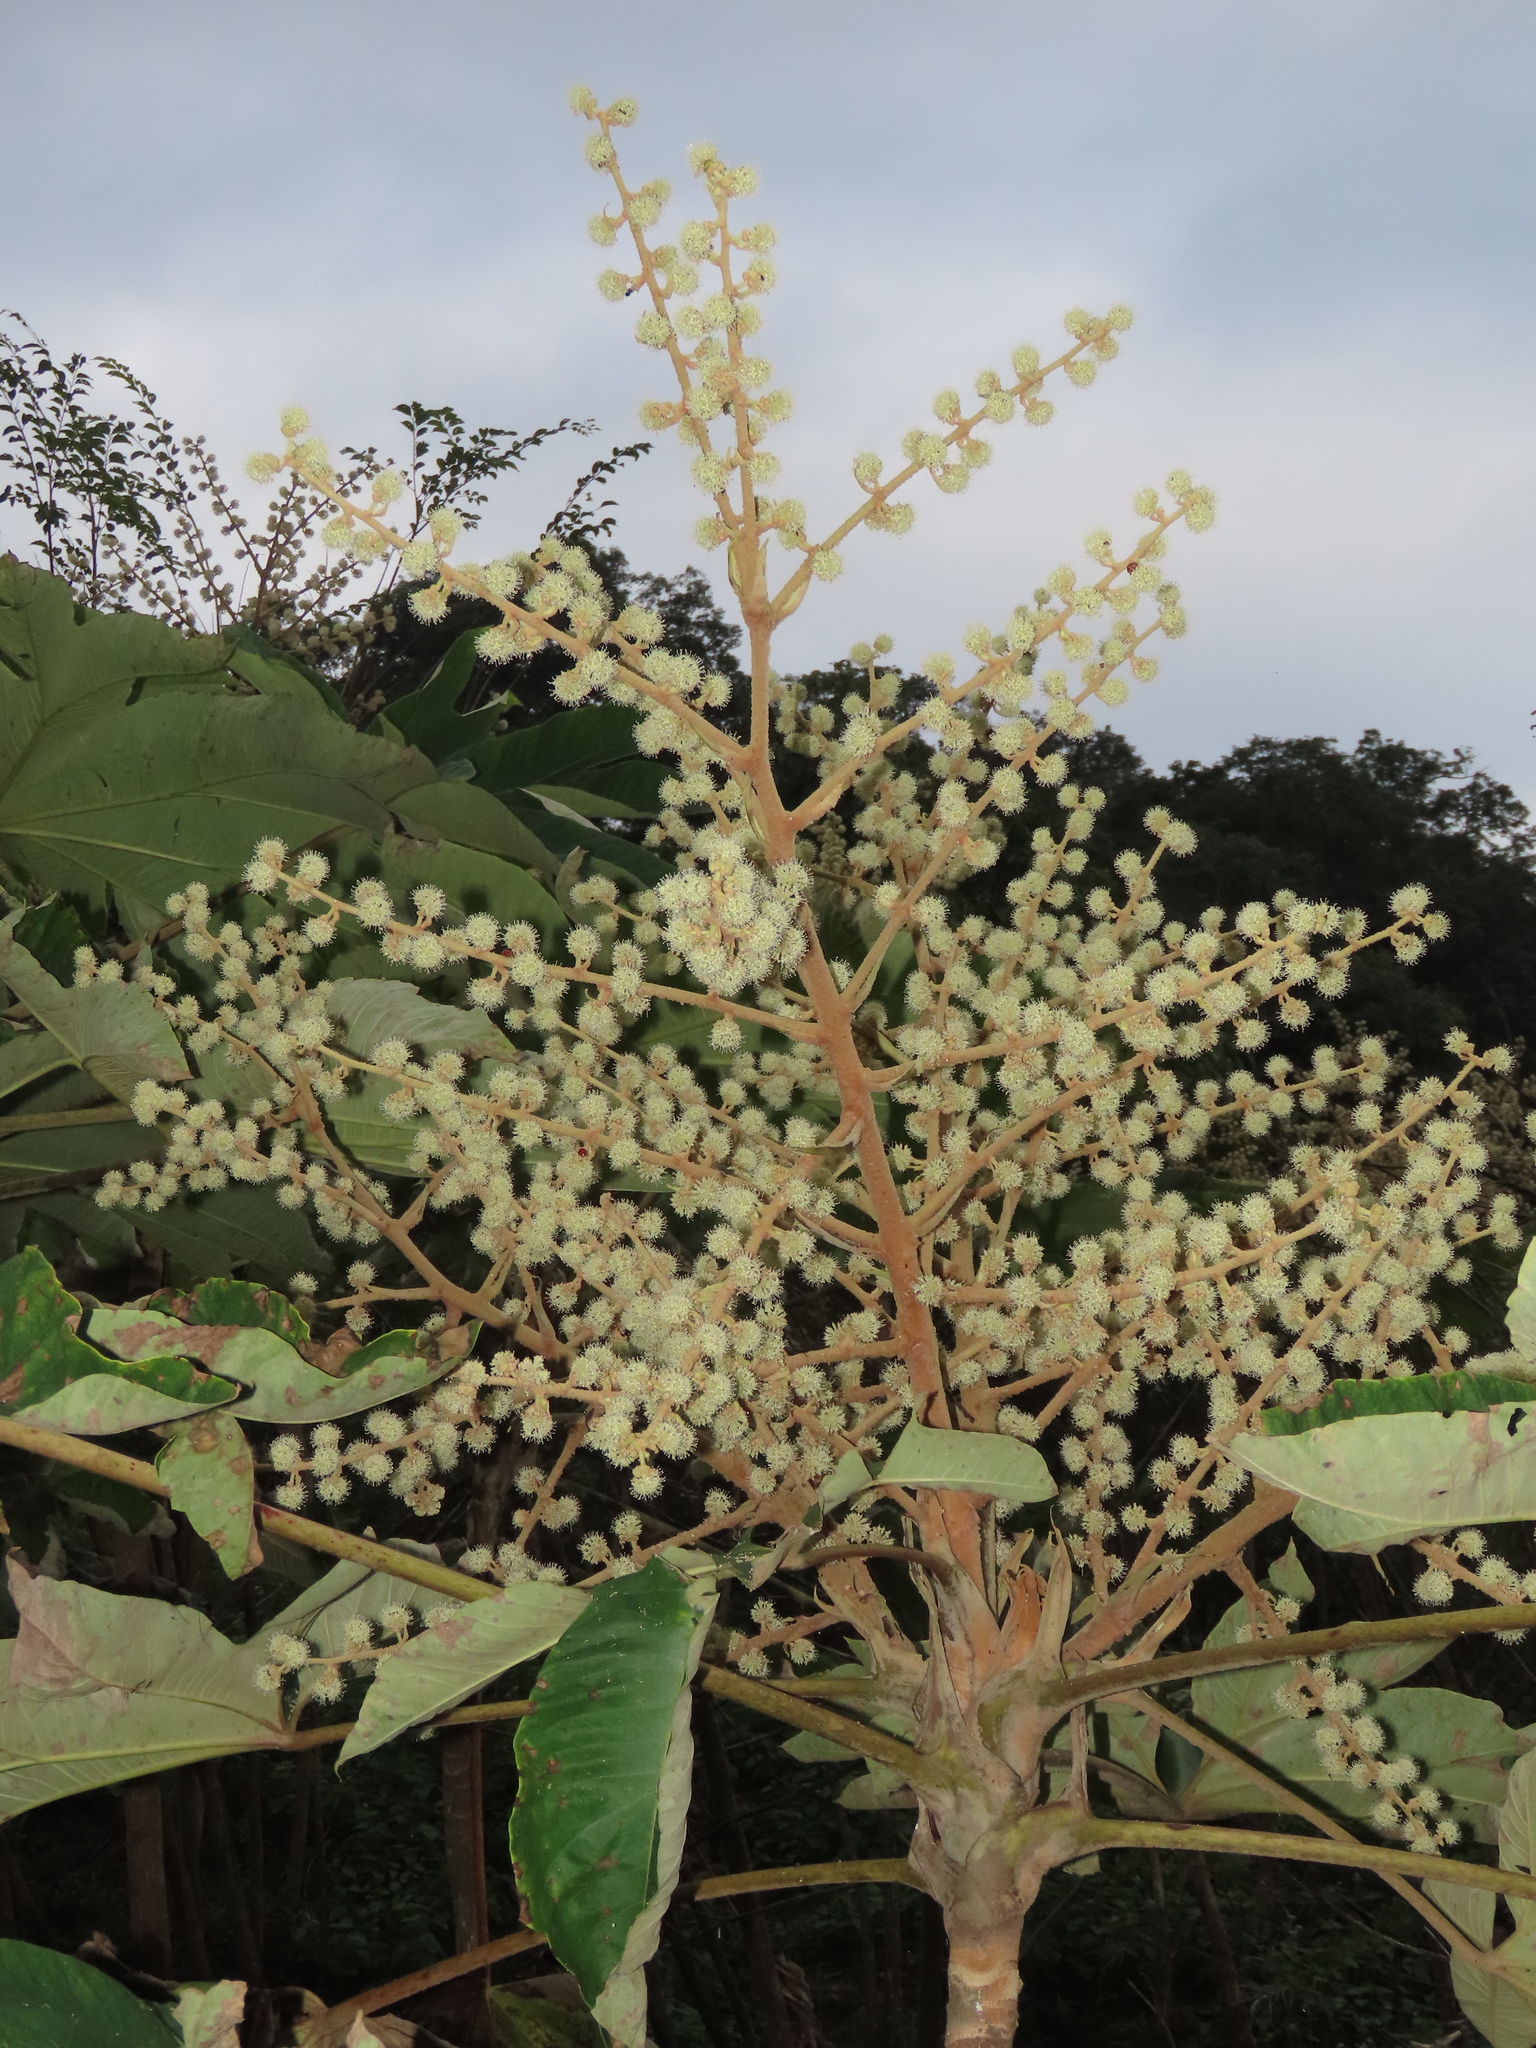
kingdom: Plantae
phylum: Tracheophyta
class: Magnoliopsida
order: Apiales
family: Araliaceae
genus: Tetrapanax
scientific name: Tetrapanax papyrifer
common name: Rice-paper plant
